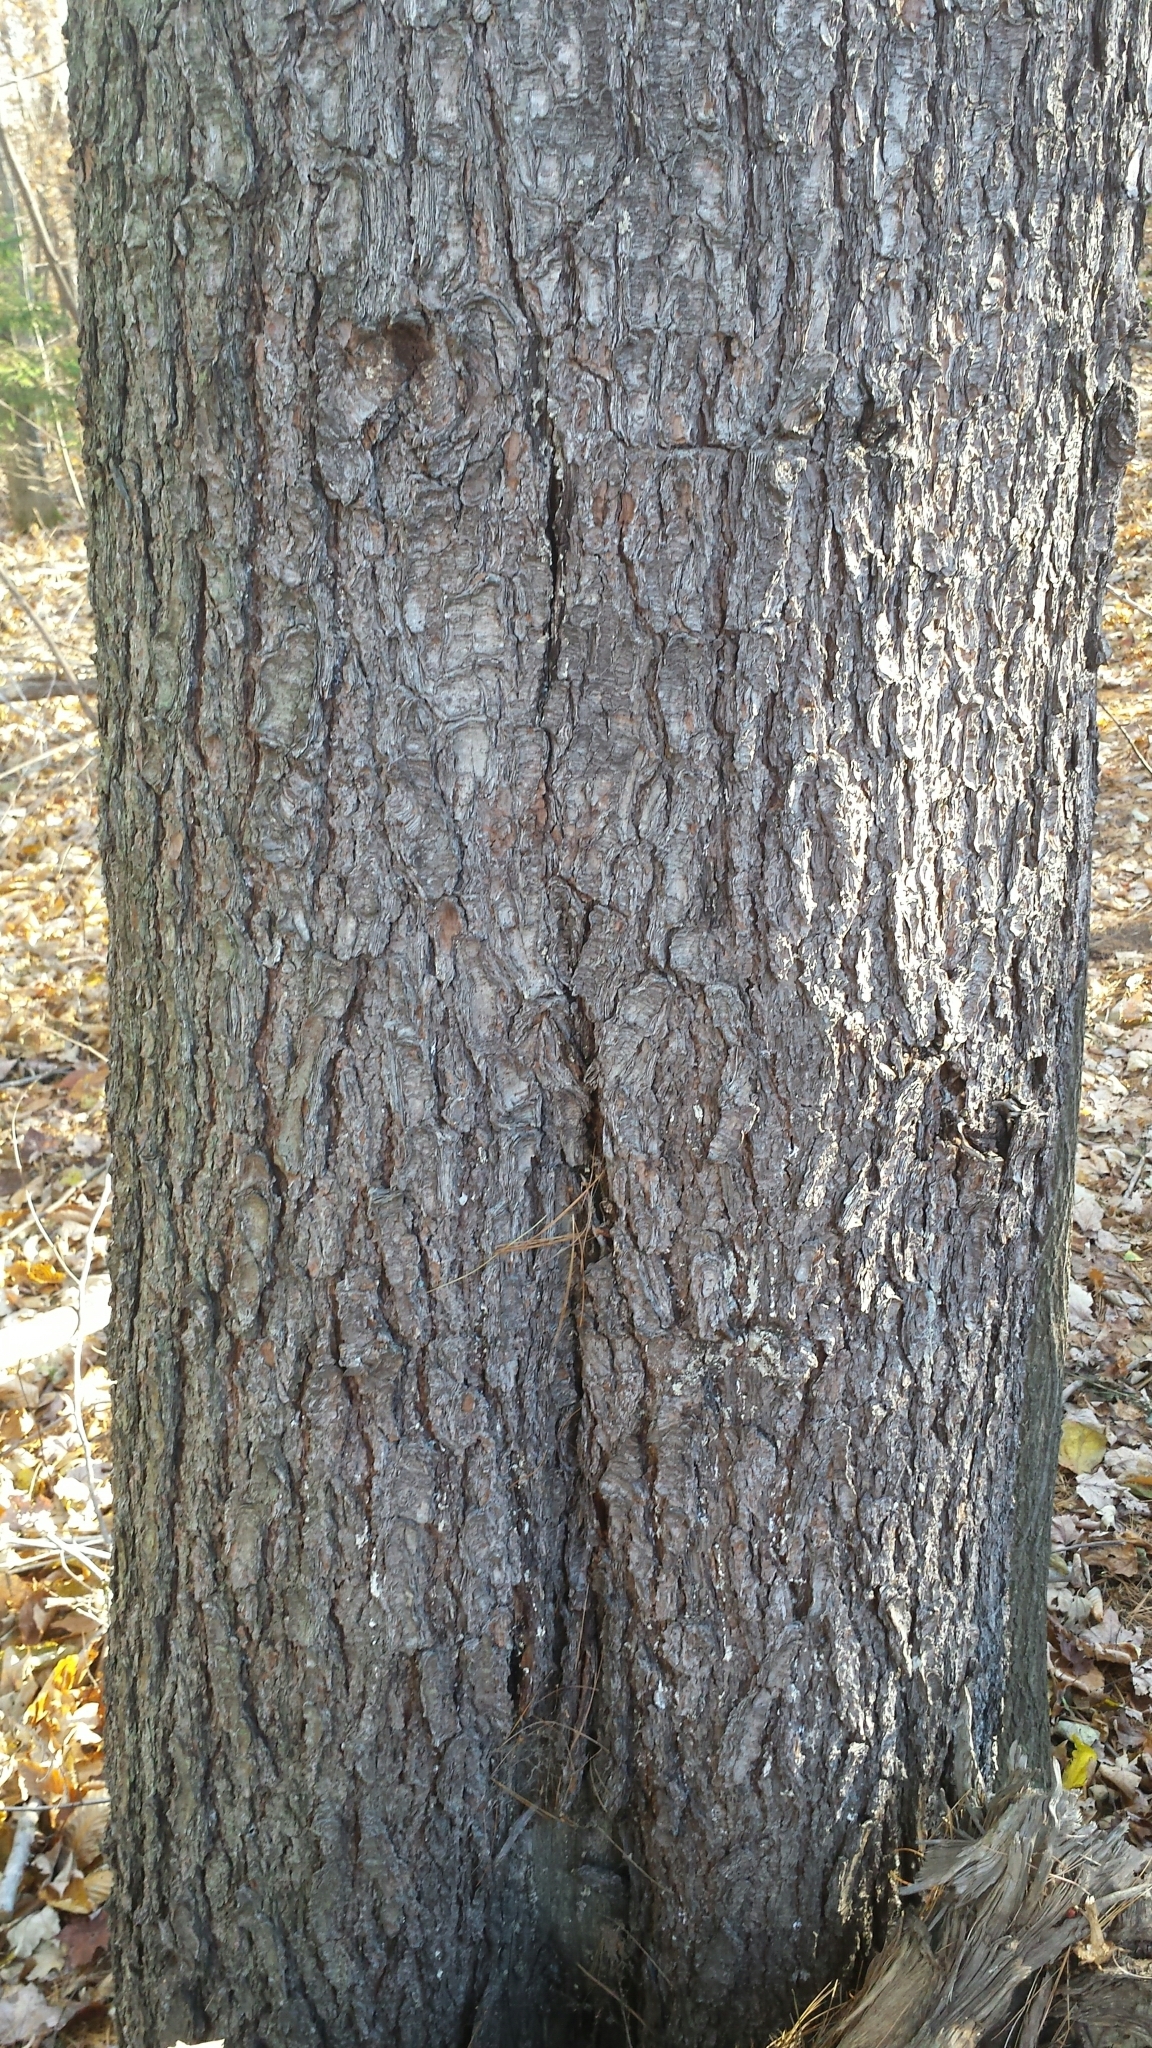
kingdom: Plantae
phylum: Tracheophyta
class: Pinopsida
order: Pinales
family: Pinaceae
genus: Pinus
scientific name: Pinus strobus
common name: Weymouth pine
